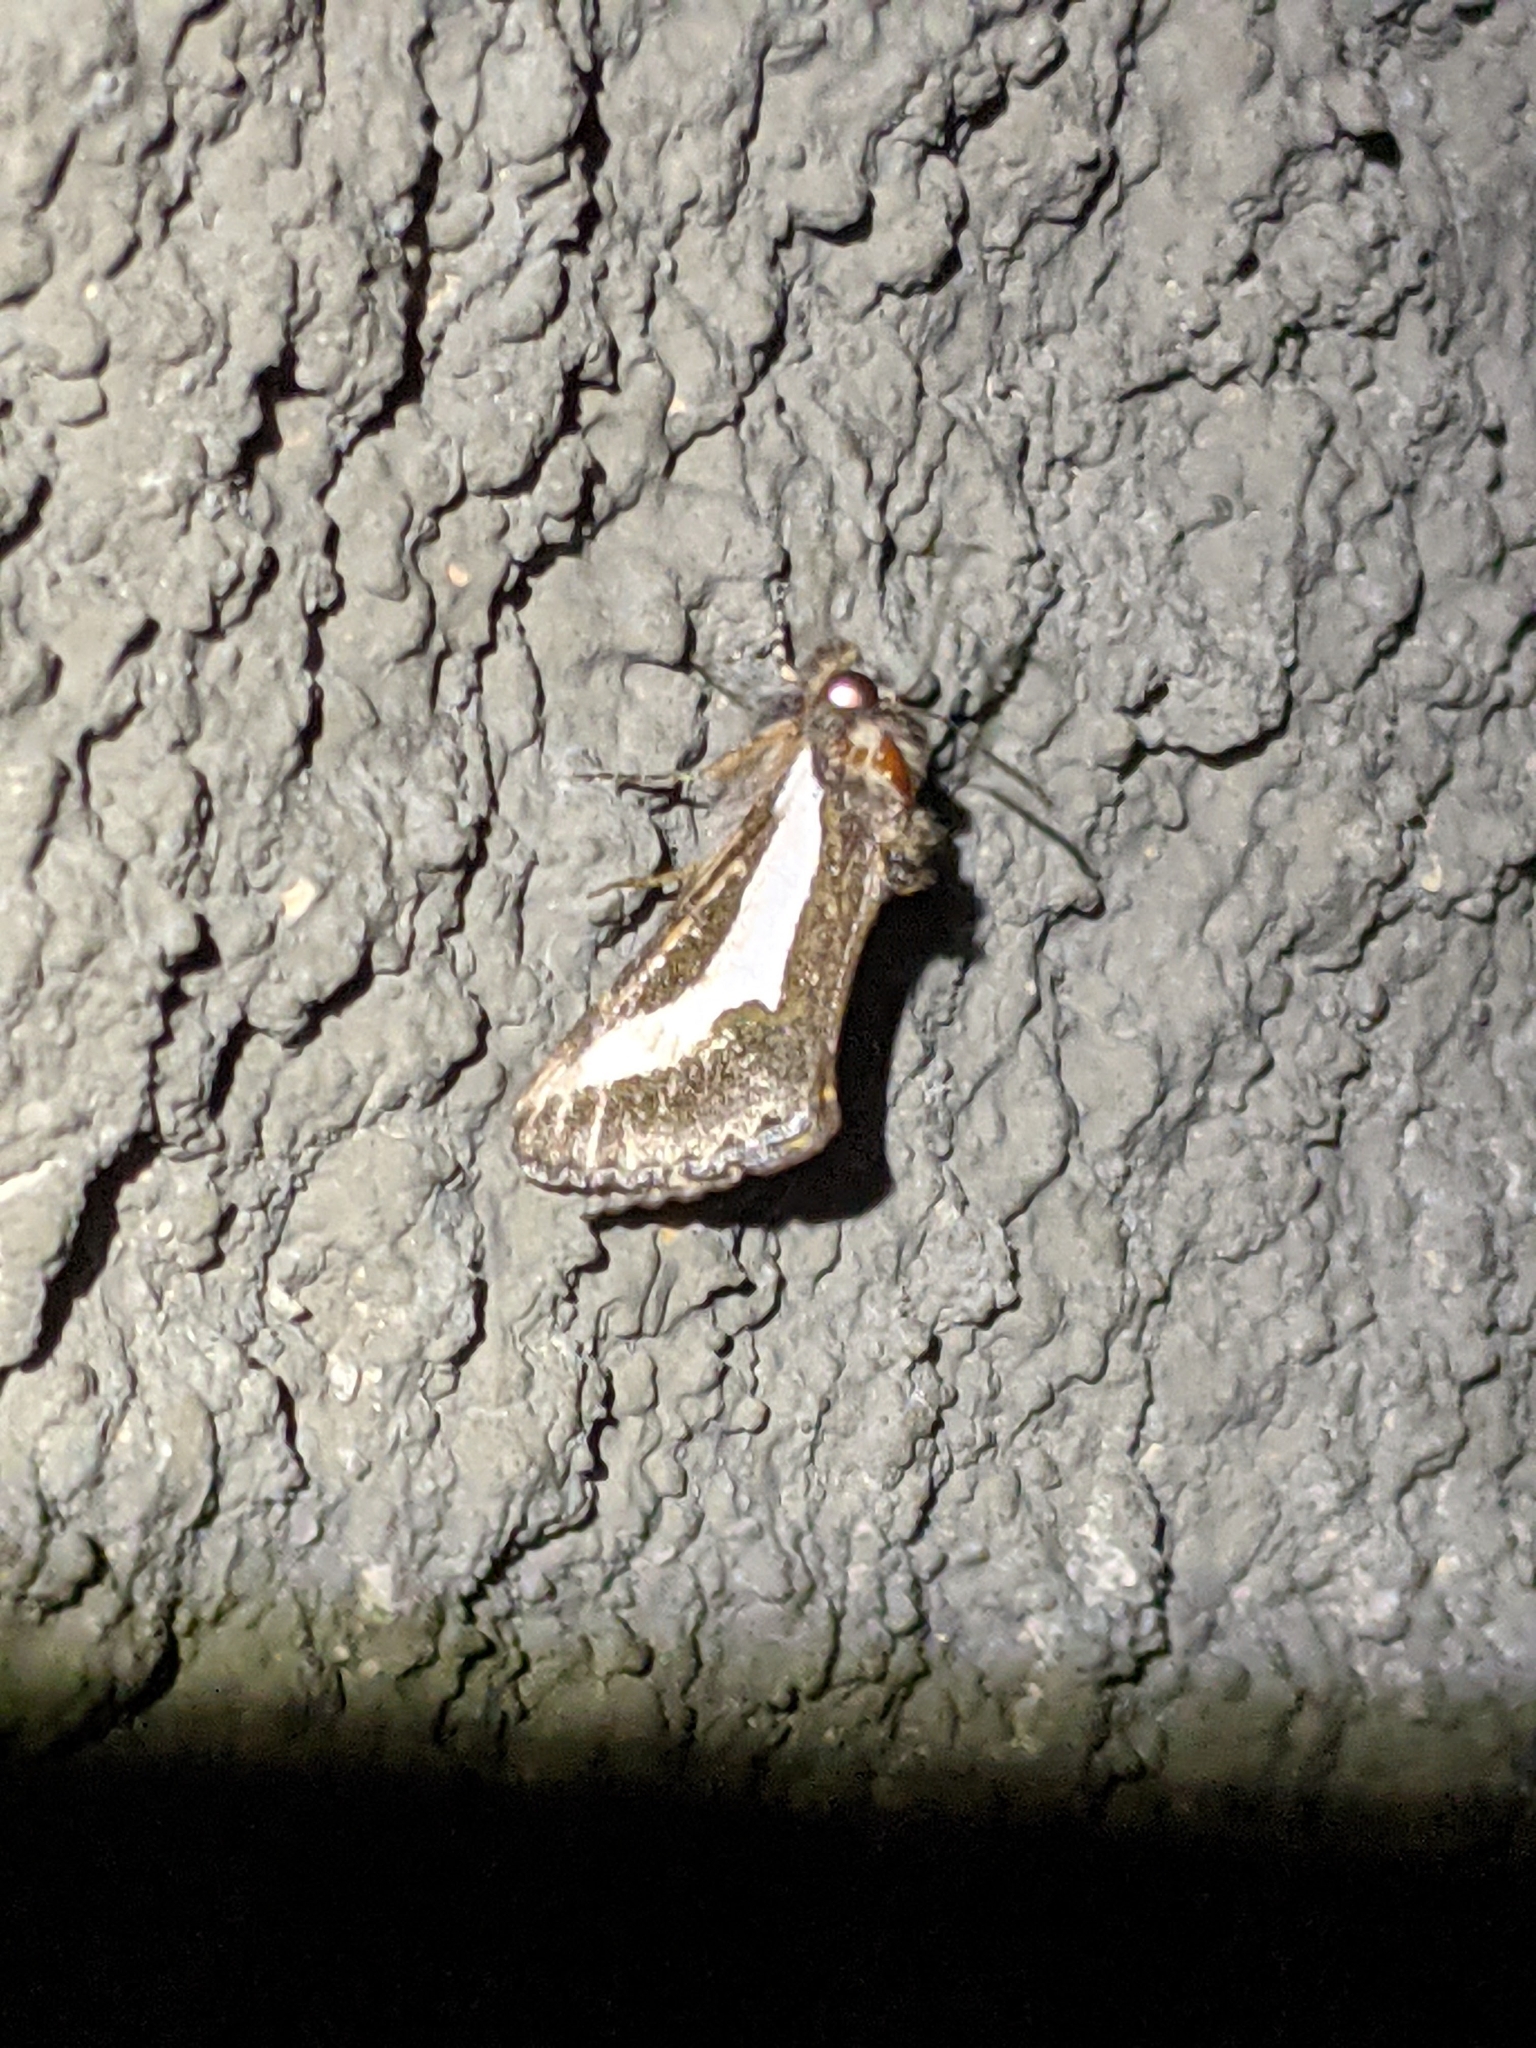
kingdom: Animalia
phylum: Arthropoda
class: Insecta
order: Lepidoptera
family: Noctuidae
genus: Euscirrhopterus
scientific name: Euscirrhopterus cosyra
